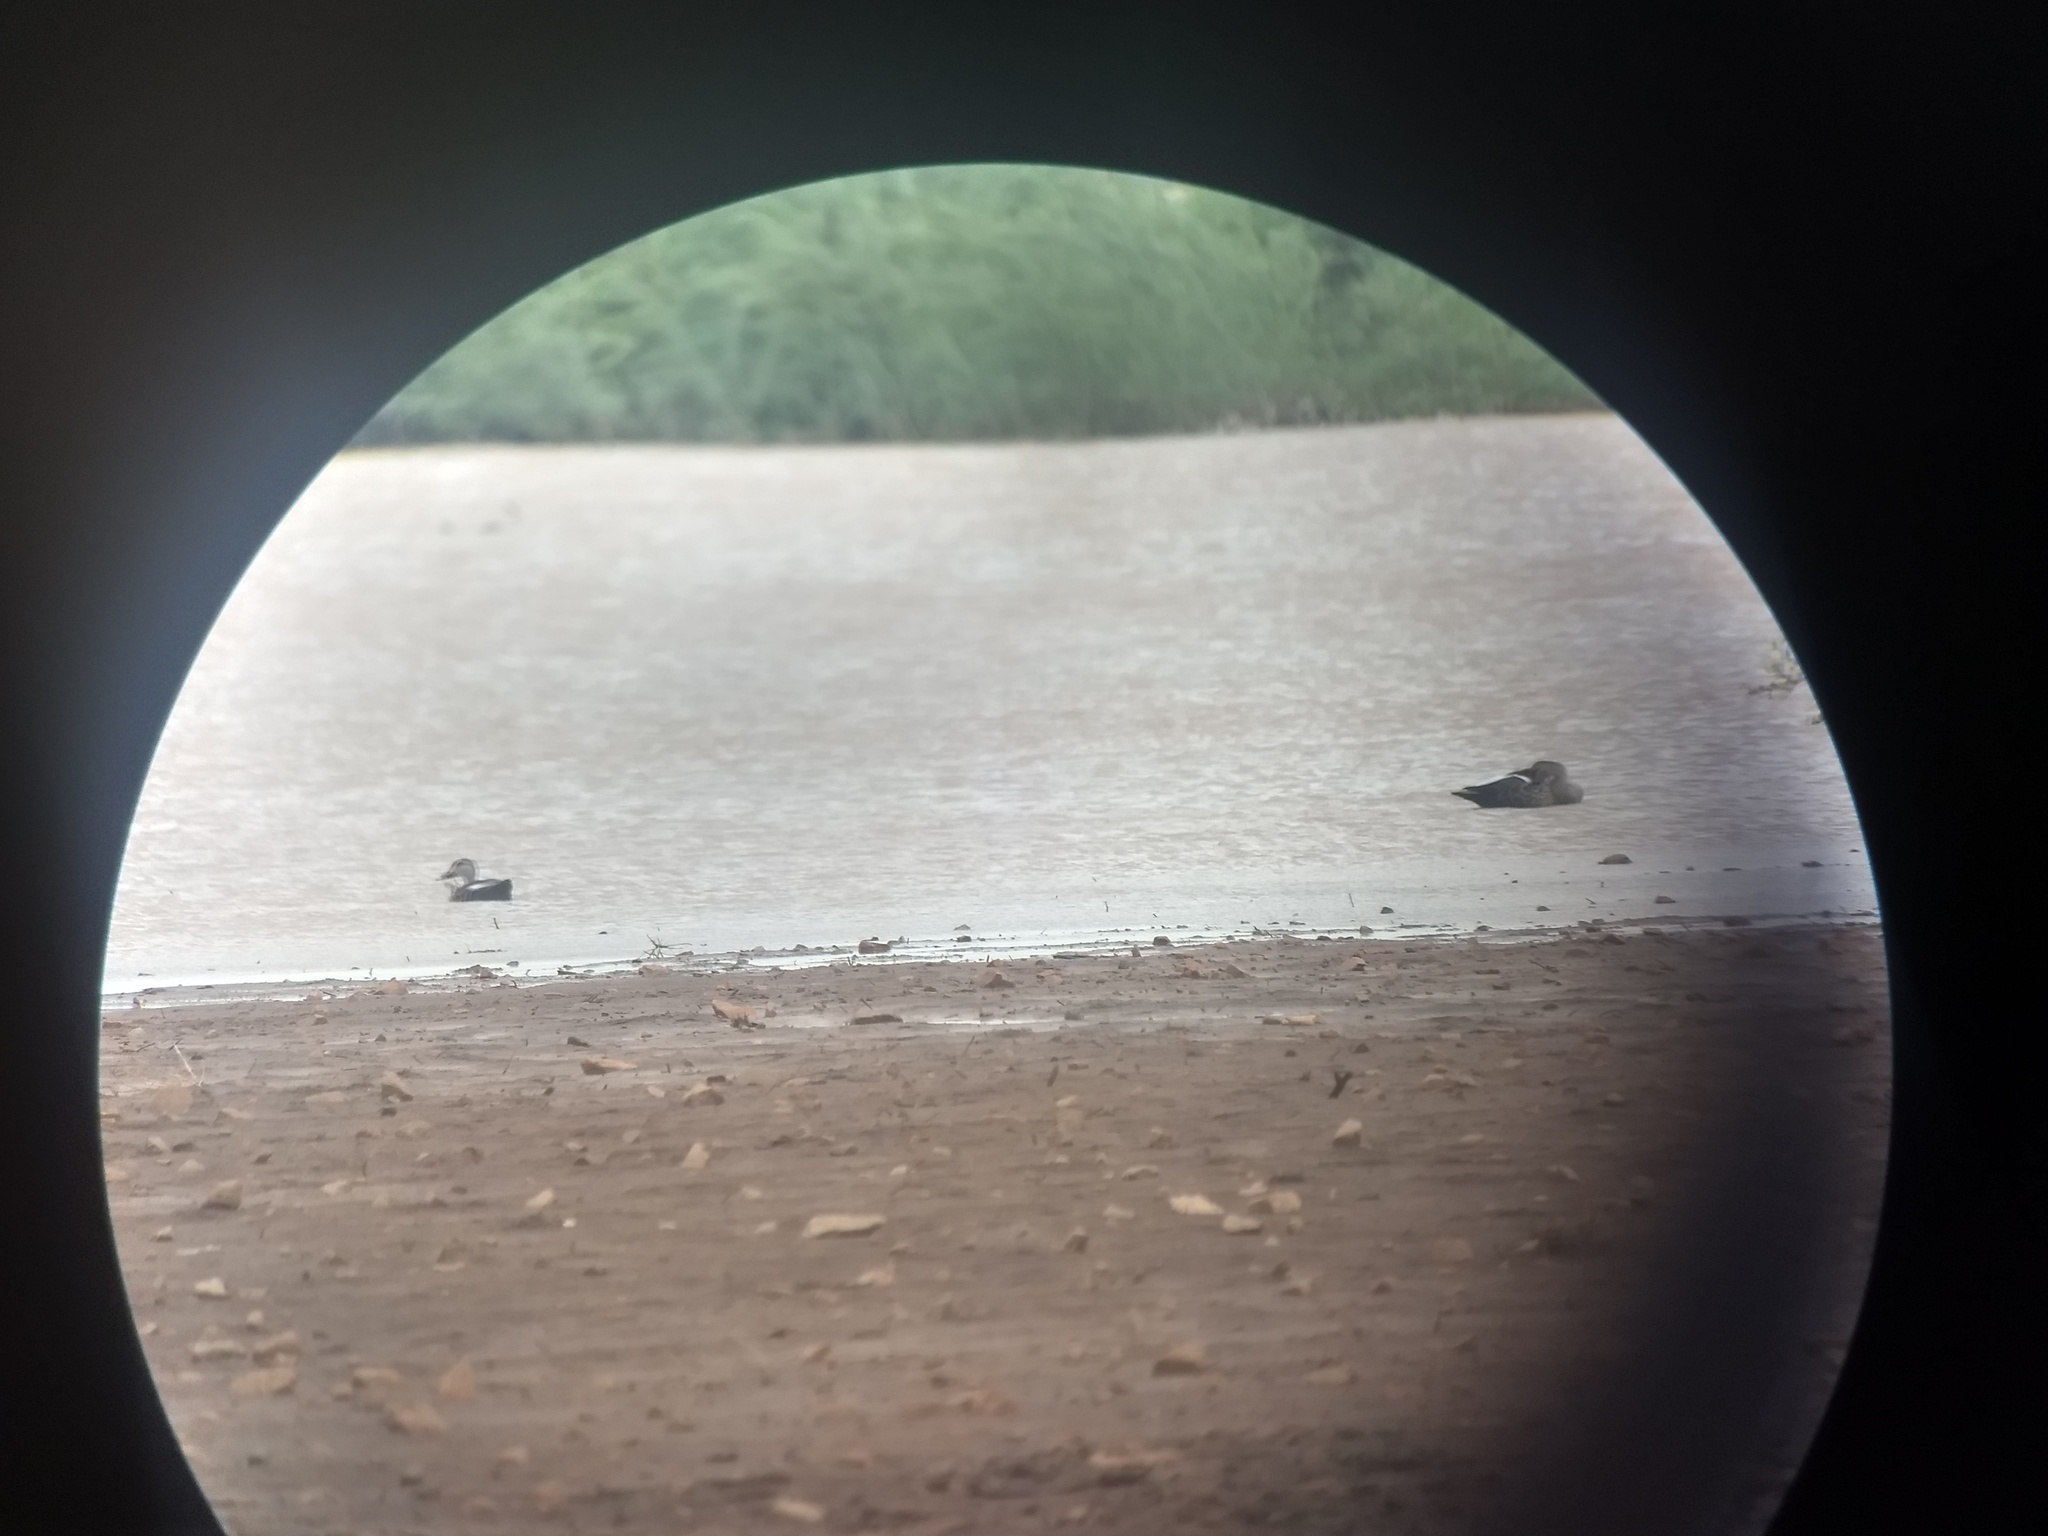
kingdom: Animalia
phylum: Chordata
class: Aves
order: Anseriformes
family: Anatidae
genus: Anas
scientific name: Anas poecilorhyncha
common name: Indian spot-billed duck
